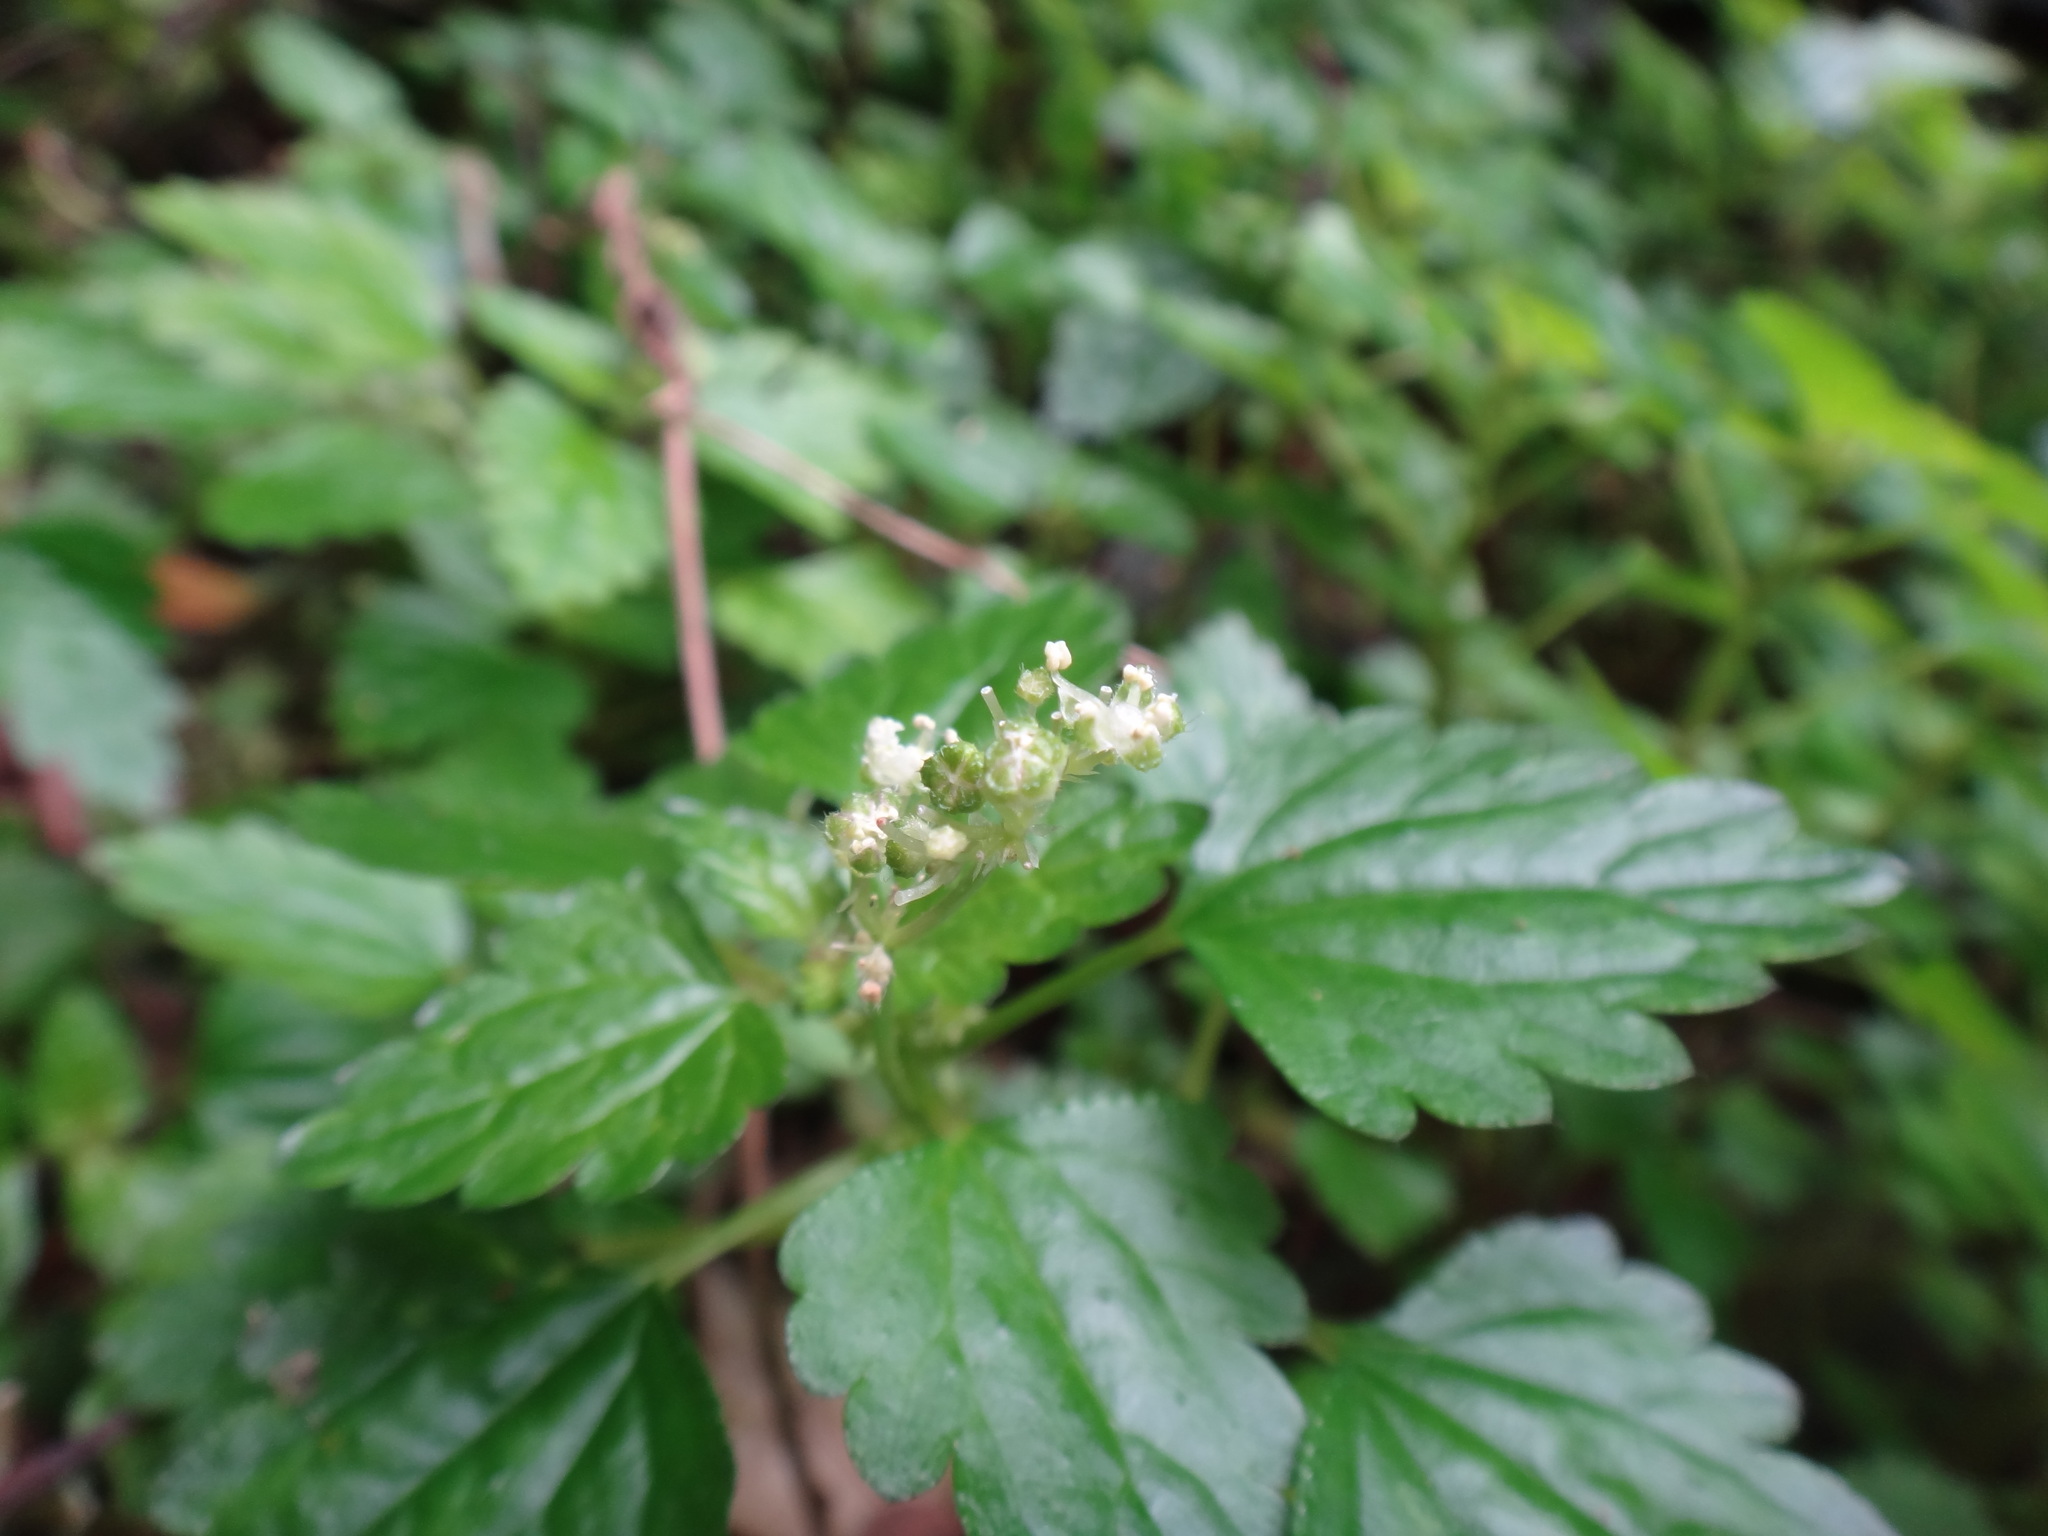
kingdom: Plantae
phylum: Tracheophyta
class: Magnoliopsida
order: Rosales
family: Urticaceae
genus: Nanocnide
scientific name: Nanocnide japonica
